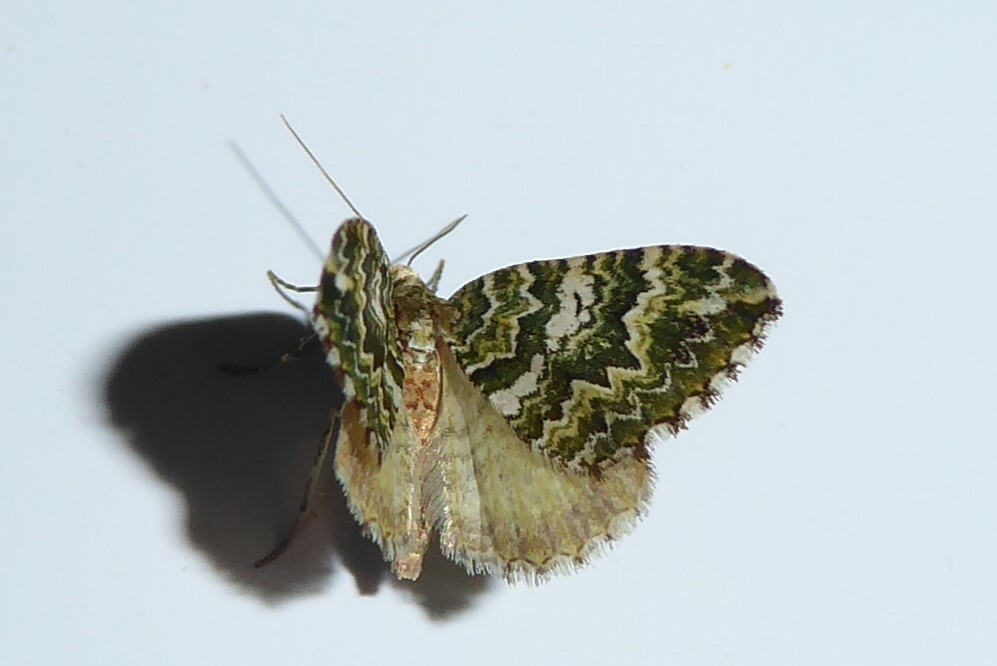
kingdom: Animalia
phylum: Arthropoda
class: Insecta
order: Lepidoptera
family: Geometridae
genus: Asaphodes
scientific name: Asaphodes beata
